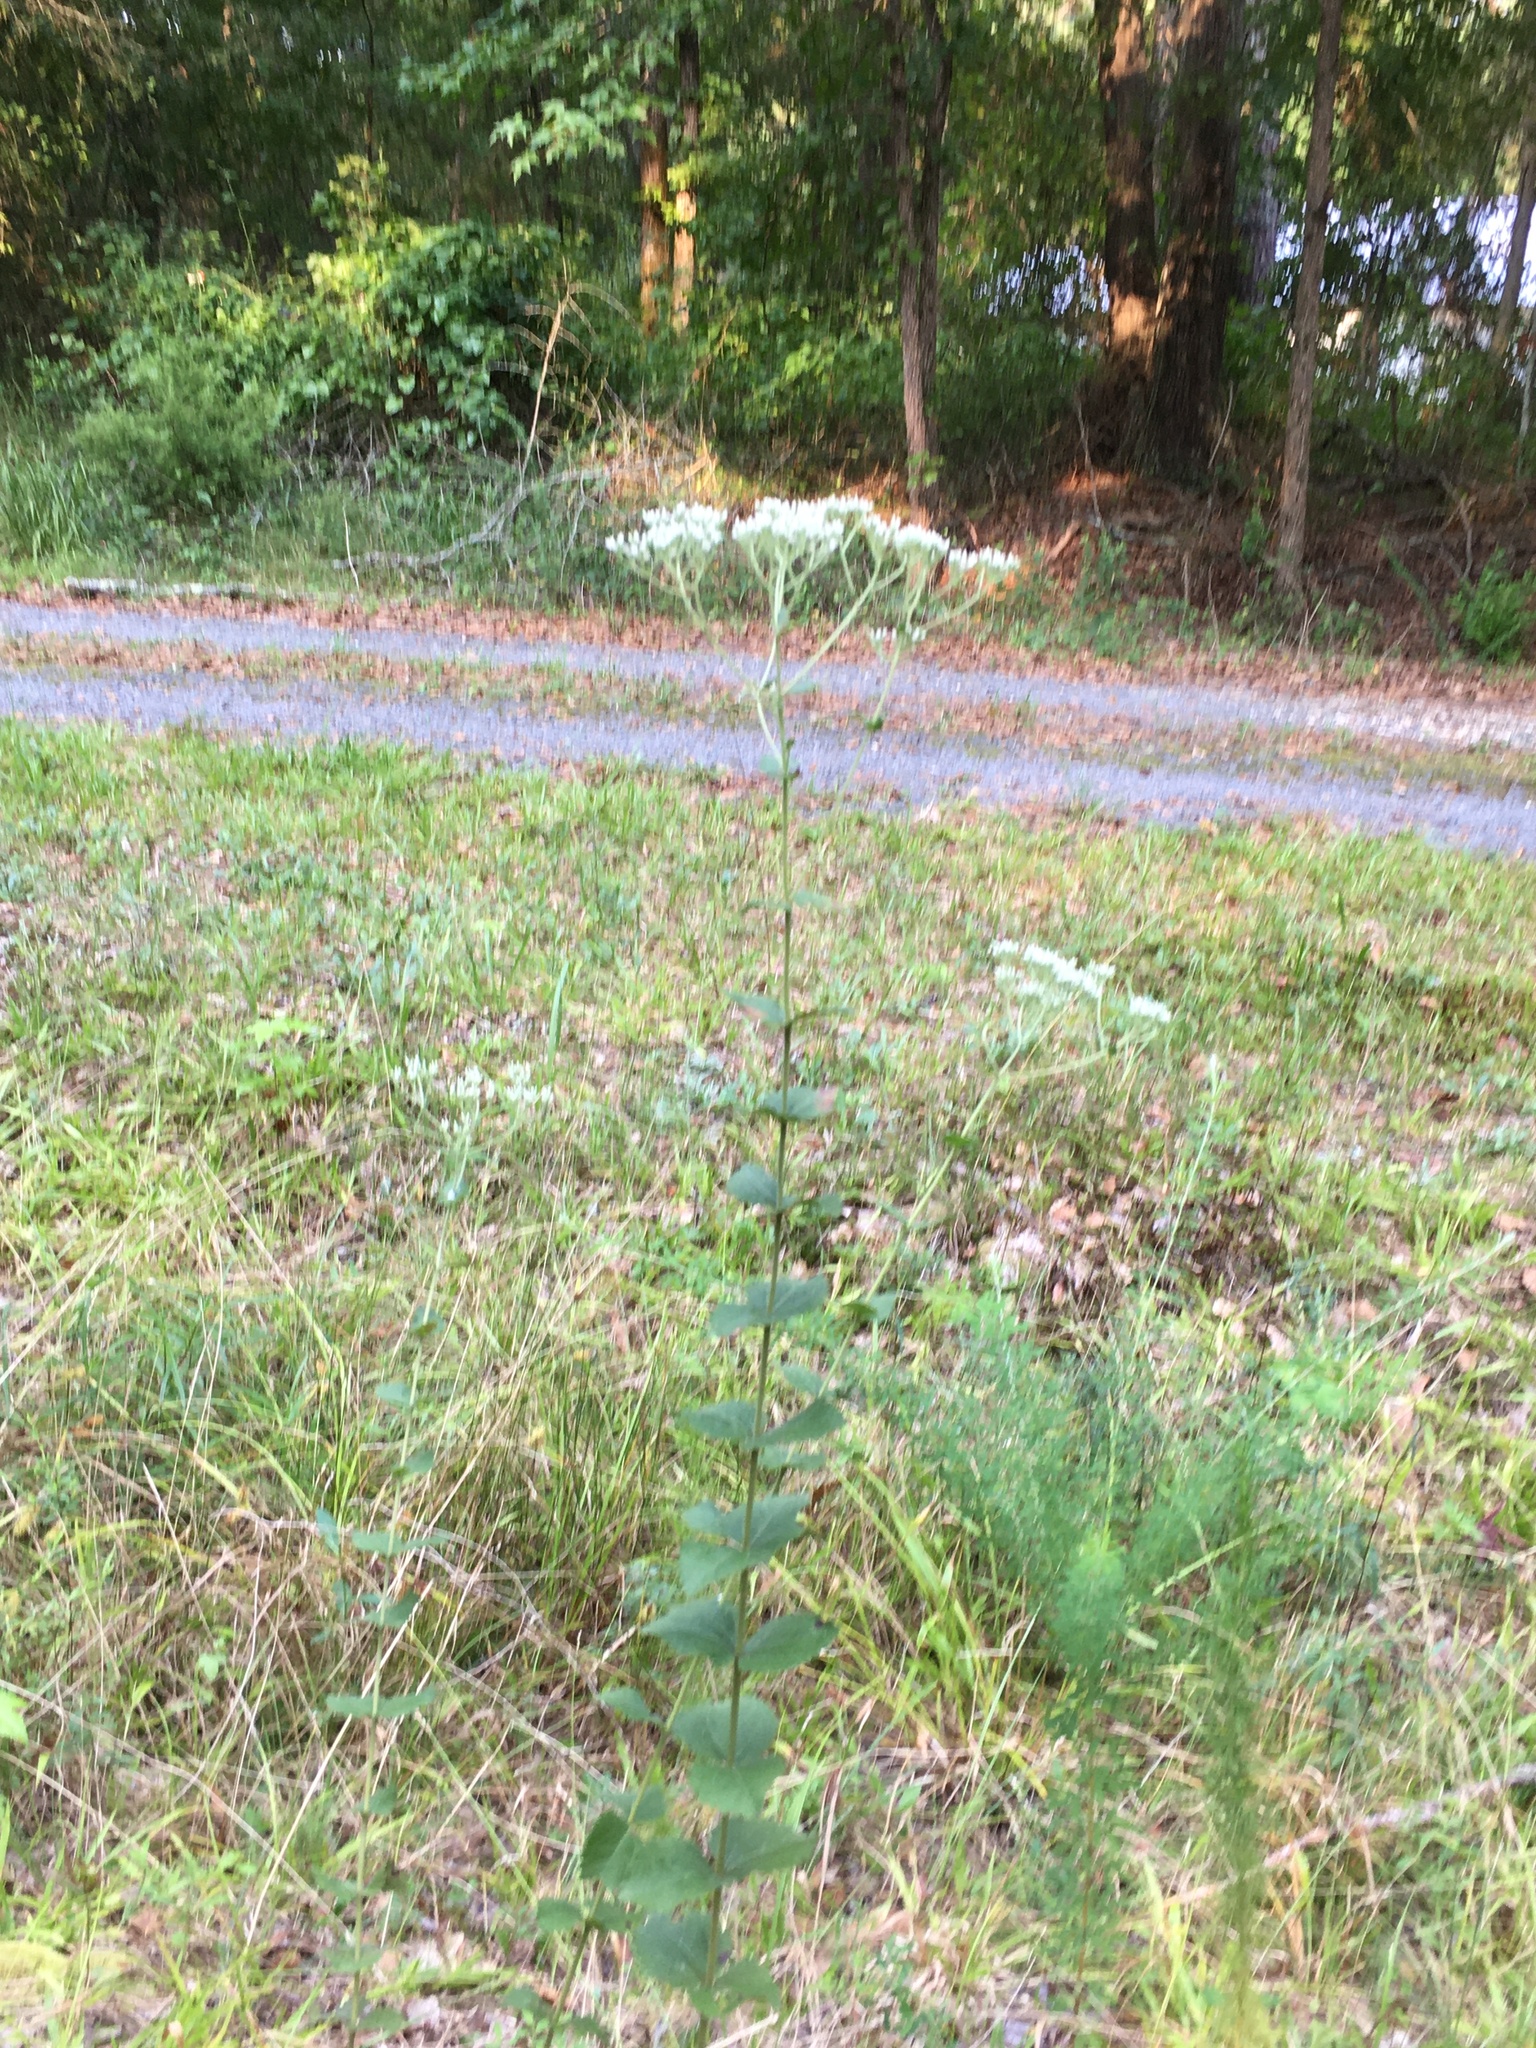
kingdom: Plantae
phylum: Tracheophyta
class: Magnoliopsida
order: Asterales
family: Asteraceae
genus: Eupatorium
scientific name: Eupatorium rotundifolium
